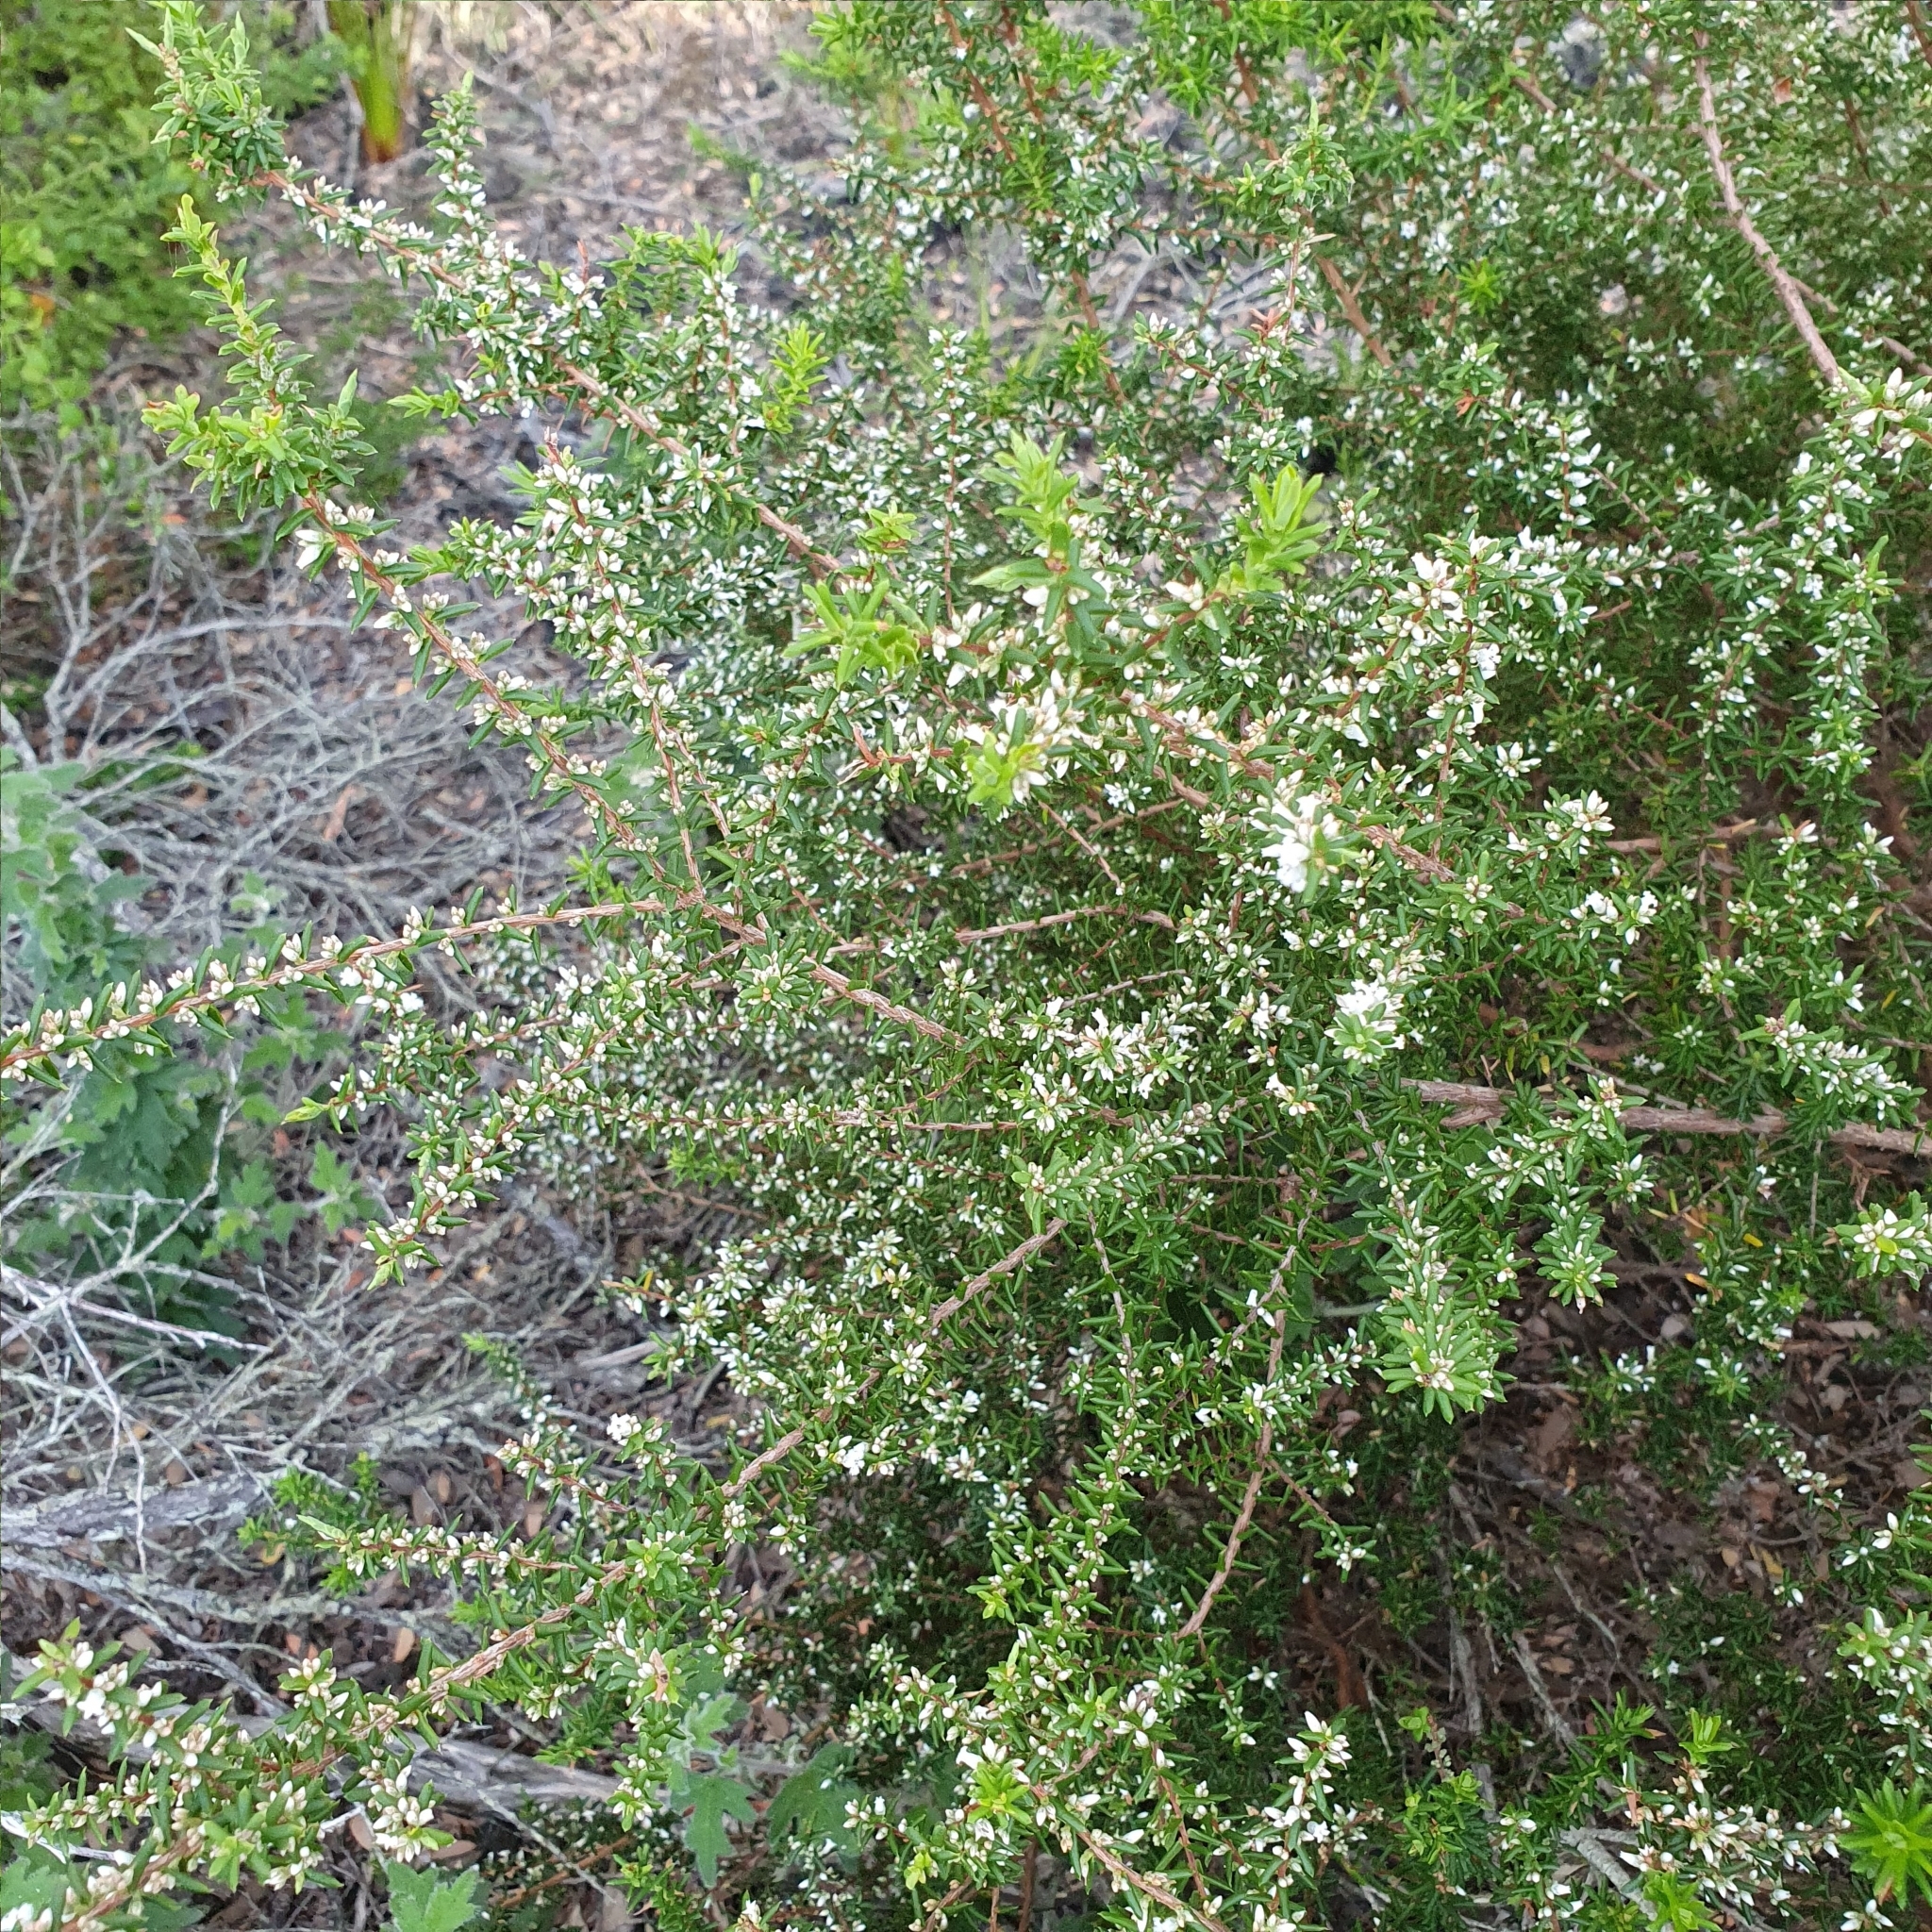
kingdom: Plantae
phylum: Tracheophyta
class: Magnoliopsida
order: Ericales
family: Ericaceae
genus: Styphelia
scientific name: Styphelia ericoides
